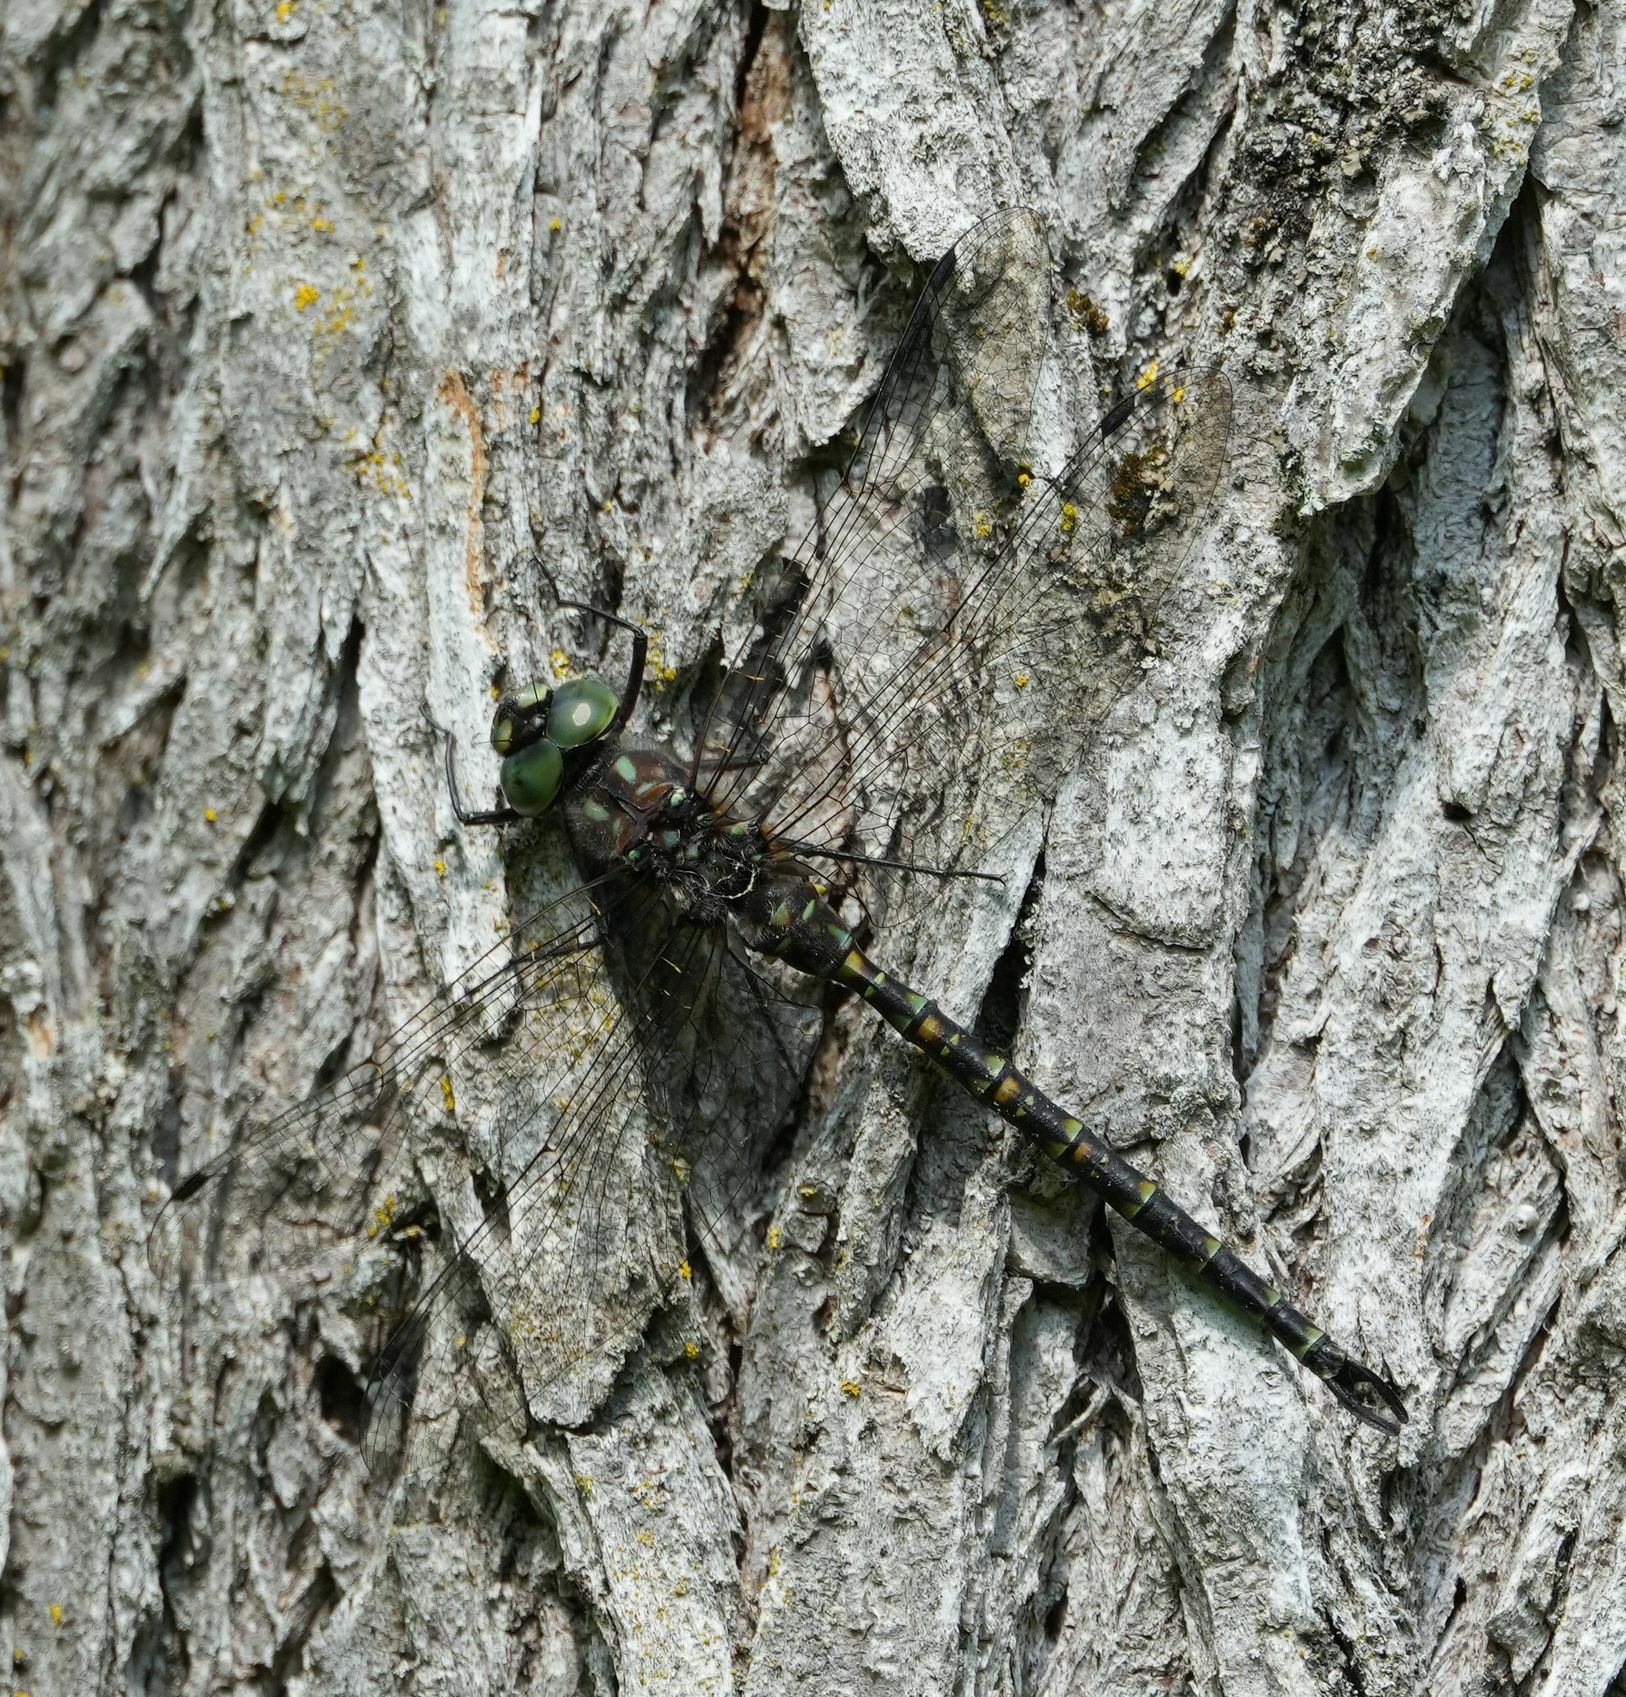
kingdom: Animalia
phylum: Arthropoda
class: Insecta
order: Odonata
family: Aeshnidae
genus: Gomphaeschna
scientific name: Gomphaeschna furcillata
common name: Harlequin darner
